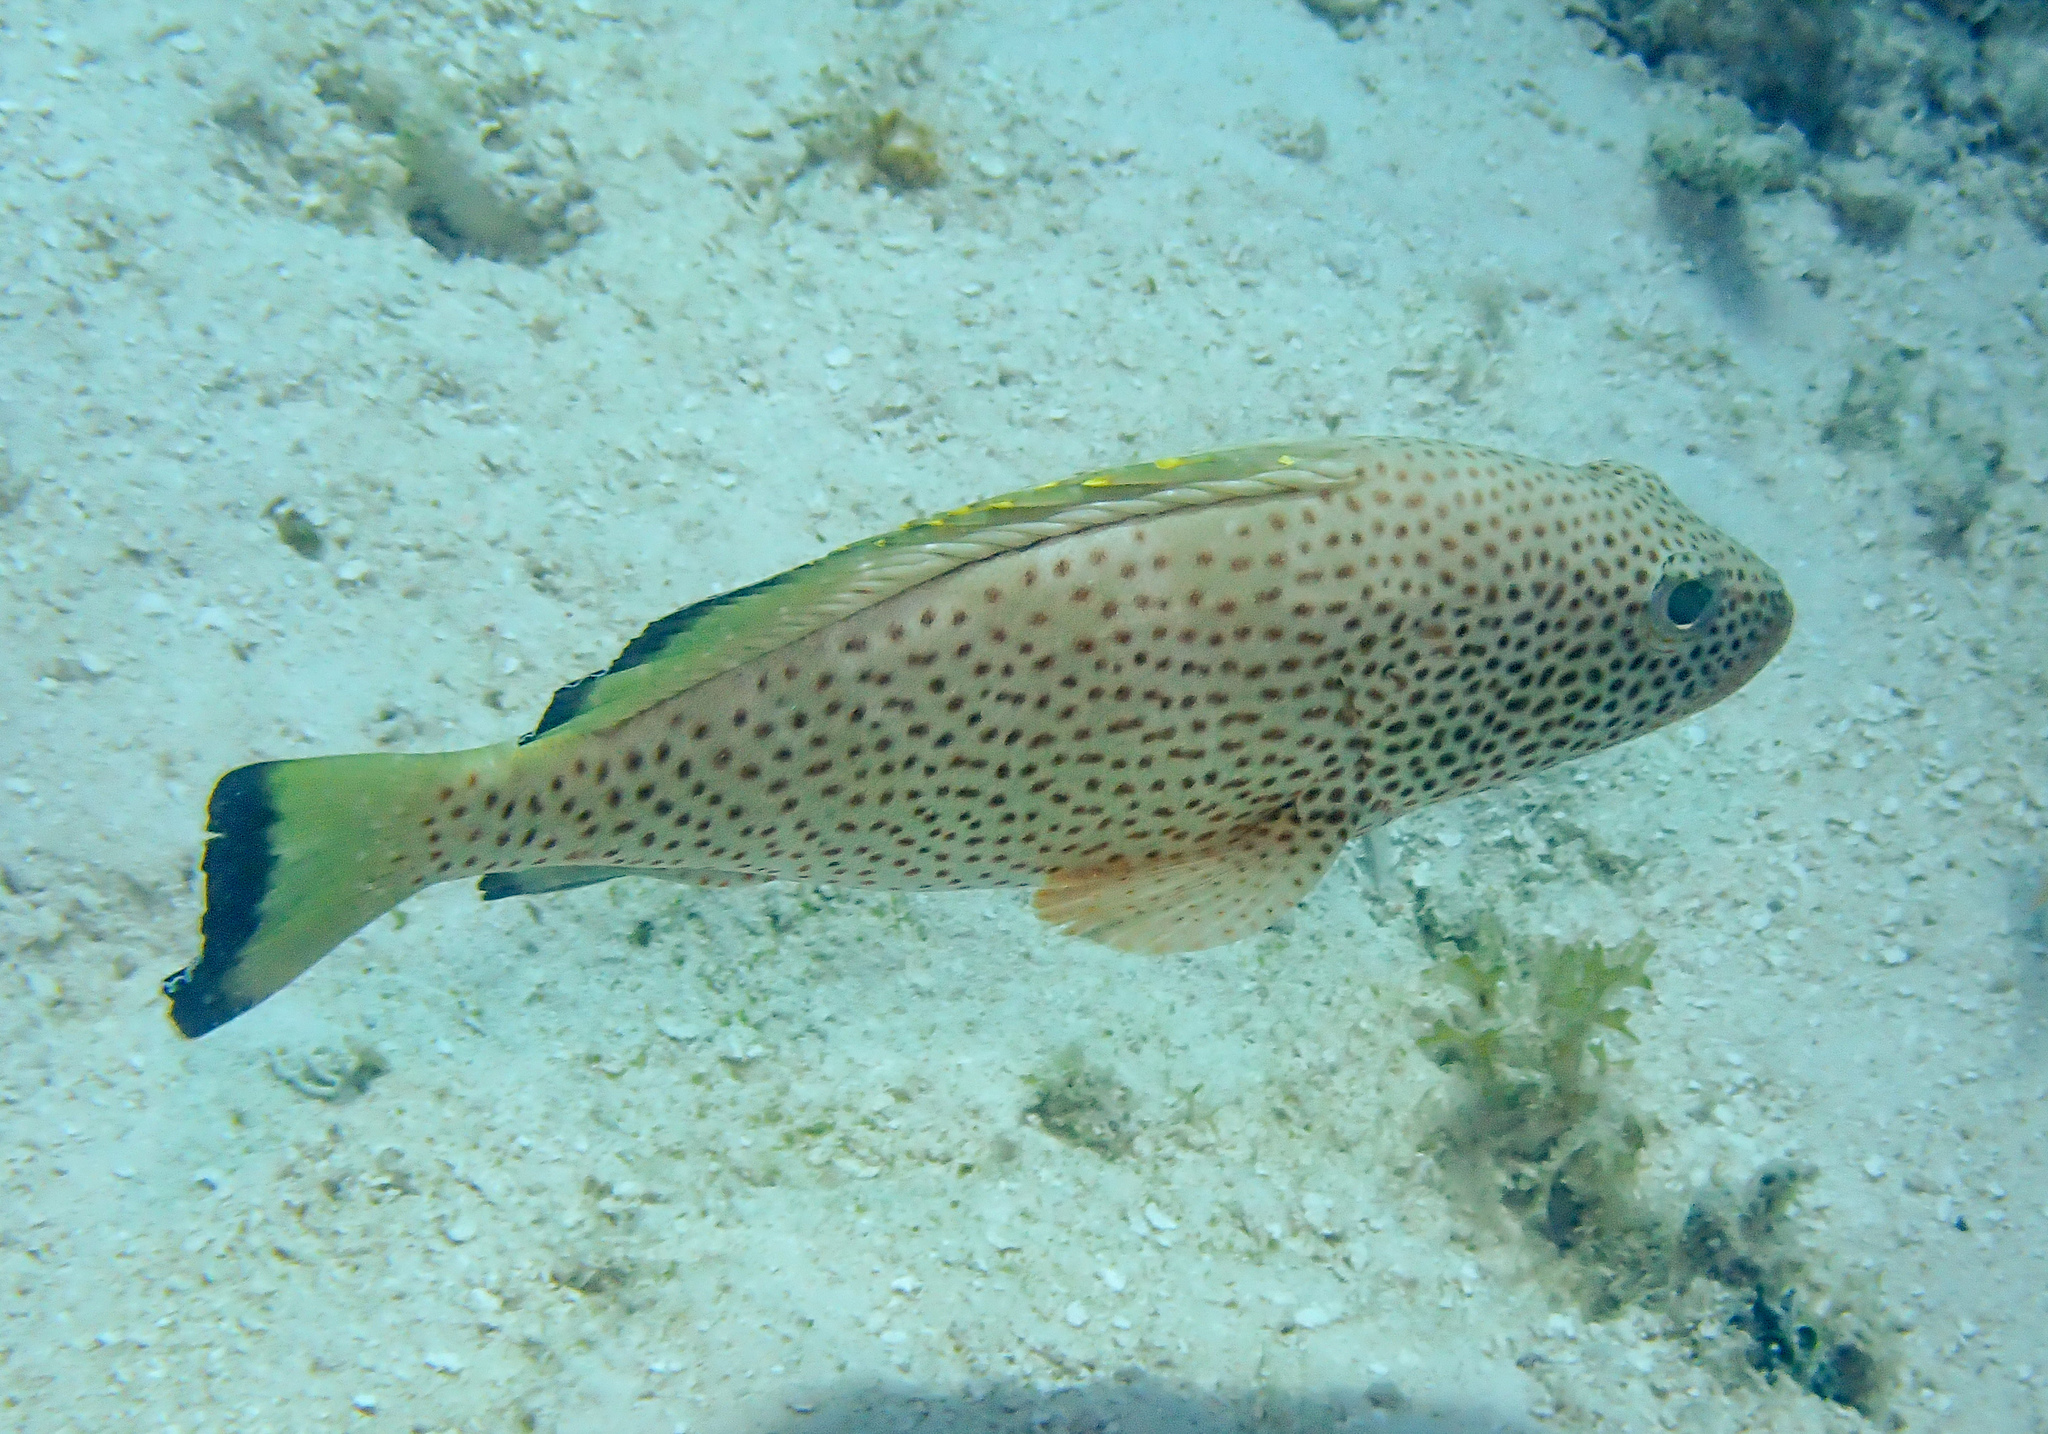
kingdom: Animalia
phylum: Chordata
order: Perciformes
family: Serranidae
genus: Epinephelus
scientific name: Epinephelus guttatus
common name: Red hind
